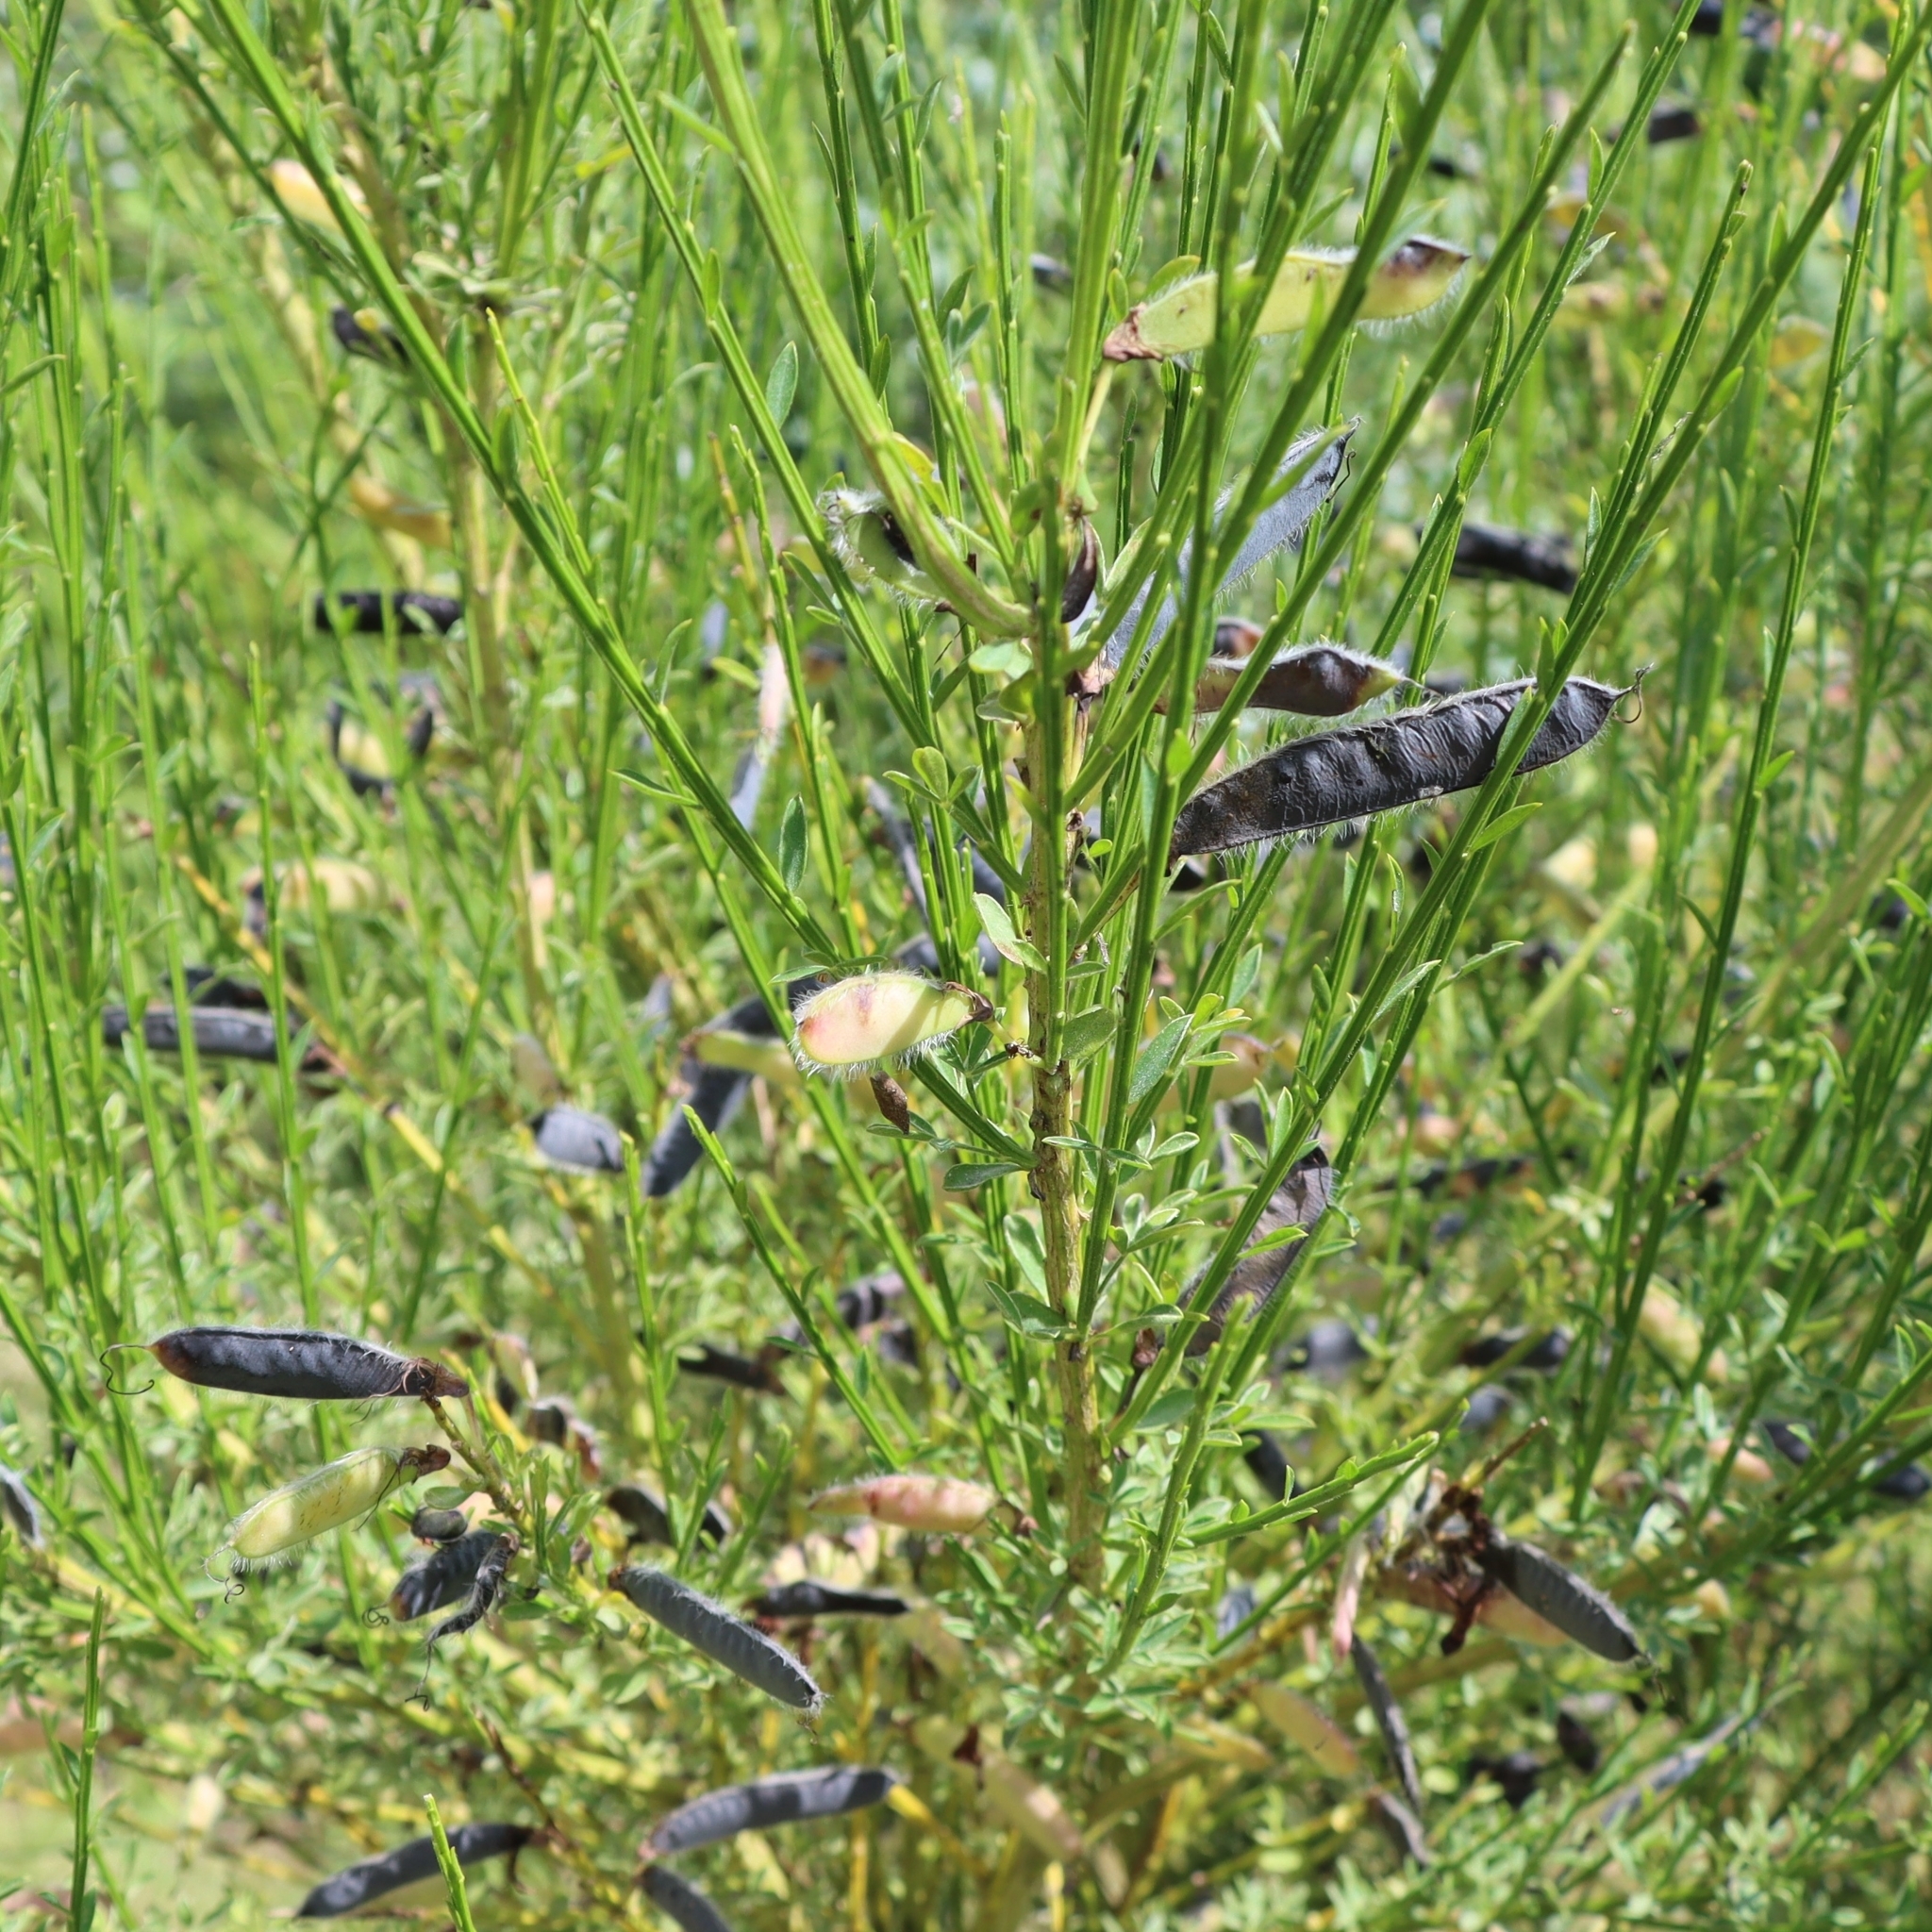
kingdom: Plantae
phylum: Tracheophyta
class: Magnoliopsida
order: Fabales
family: Fabaceae
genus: Cytisus
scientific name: Cytisus scoparius
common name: Scotch broom
